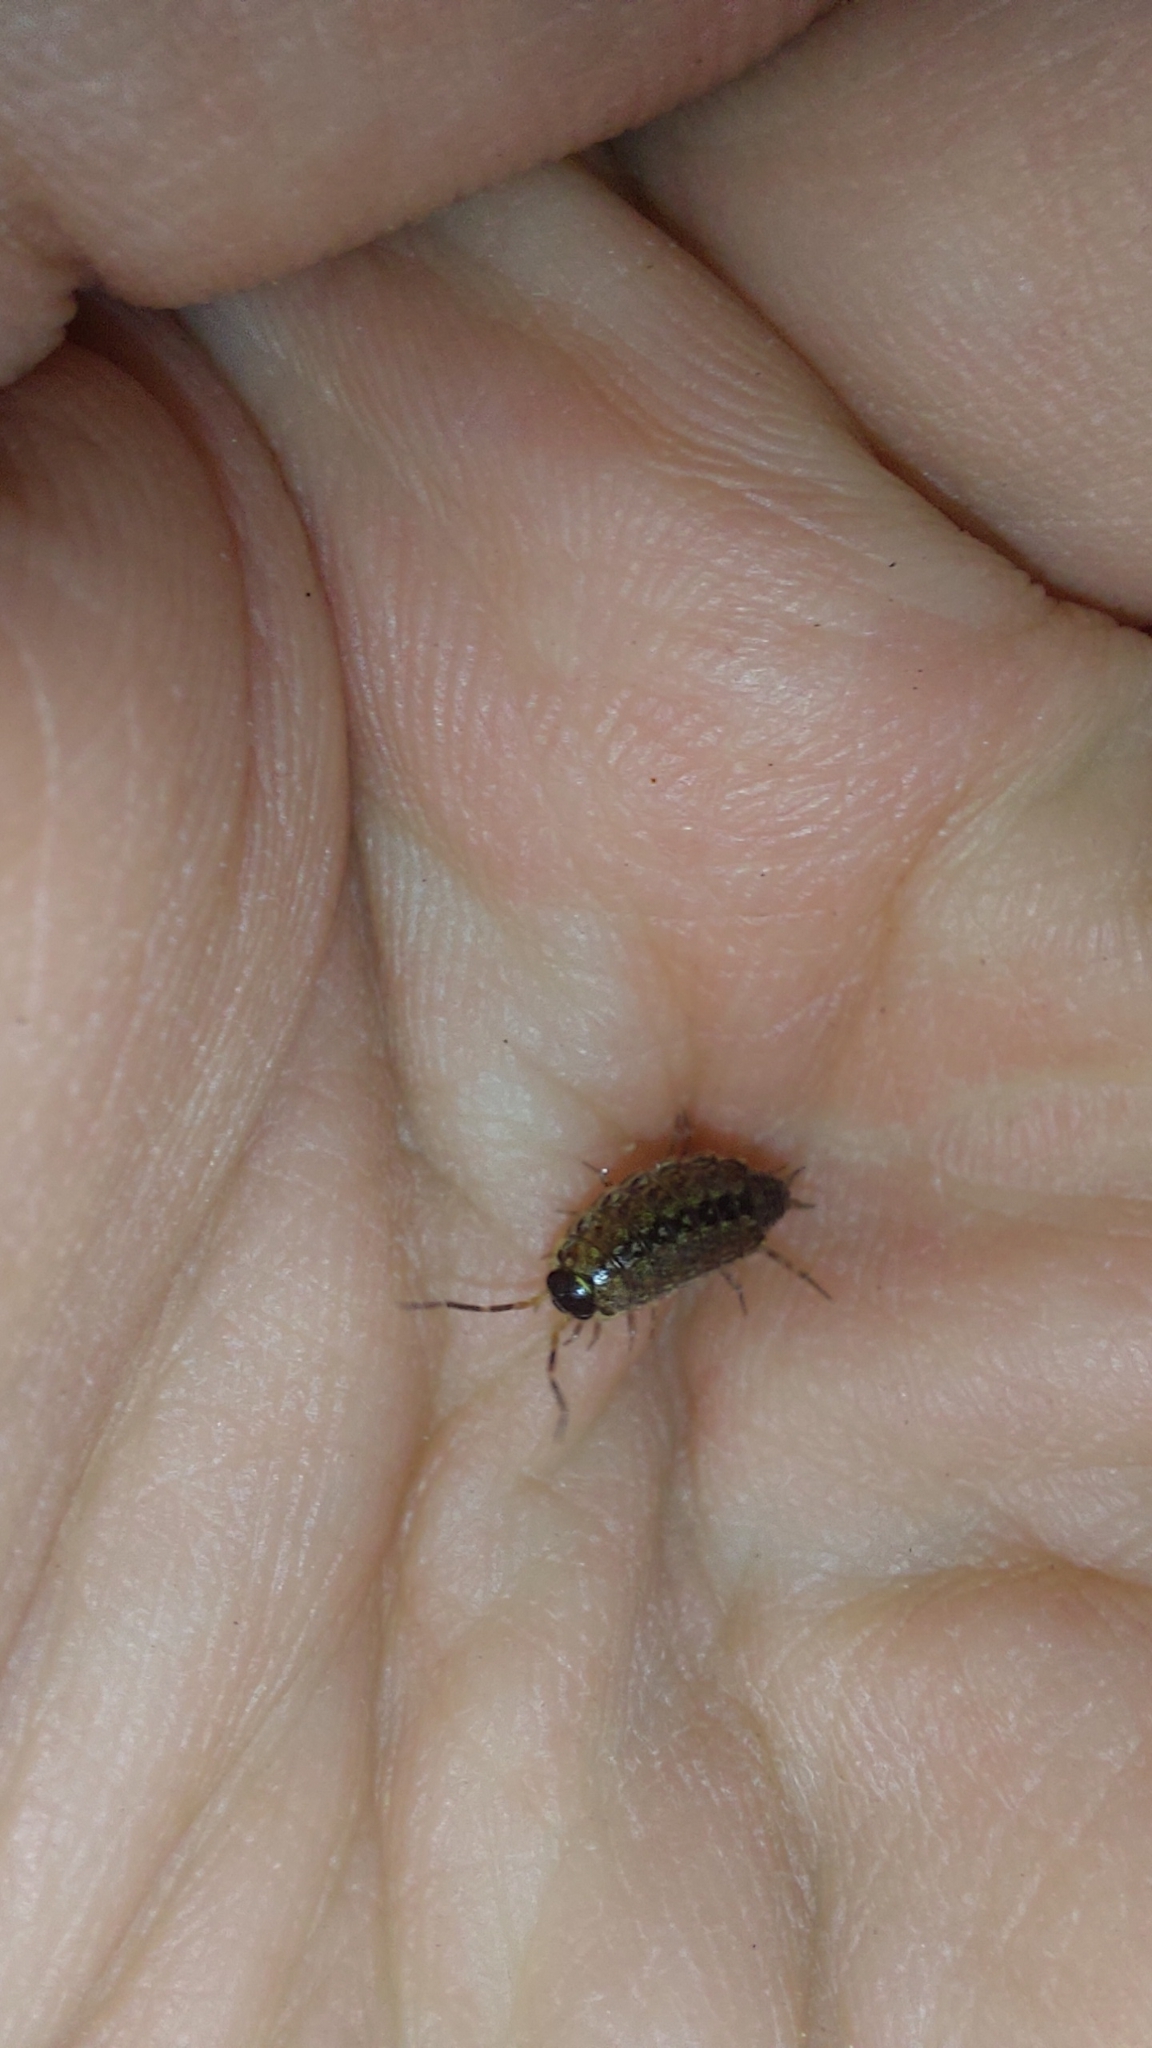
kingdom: Animalia
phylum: Arthropoda
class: Malacostraca
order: Isopoda
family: Philosciidae
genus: Philoscia
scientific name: Philoscia muscorum
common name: Common striped woodlouse
